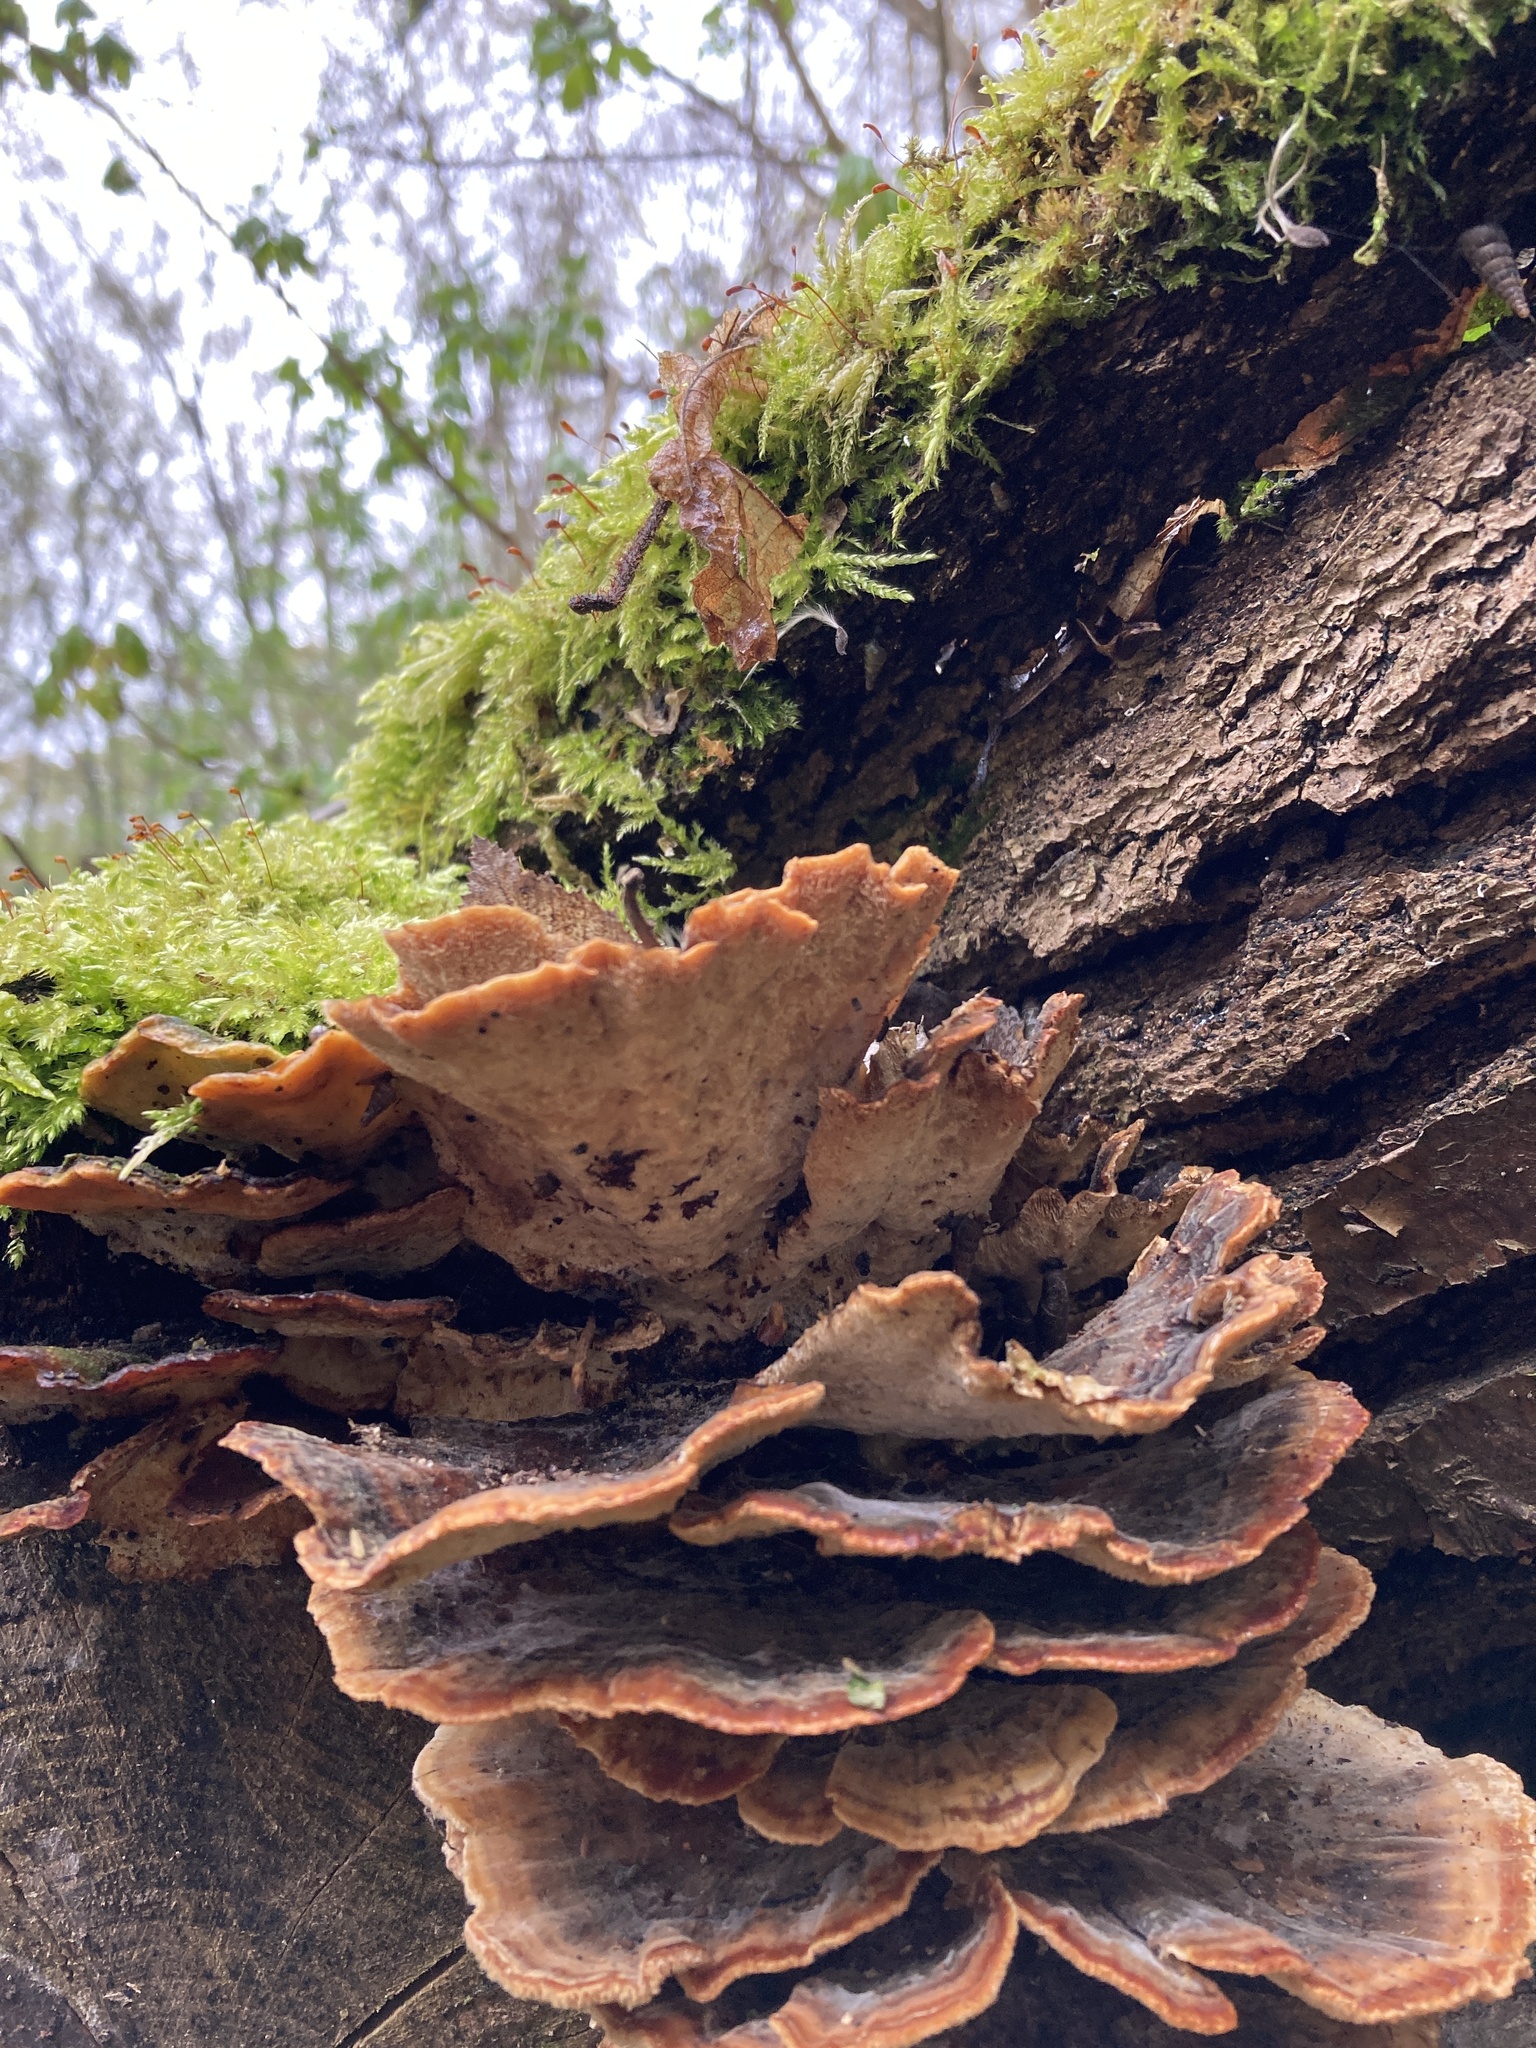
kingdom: Fungi
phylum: Basidiomycota
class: Agaricomycetes
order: Polyporales
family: Polyporaceae
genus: Trametes
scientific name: Trametes versicolor
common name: Turkeytail
